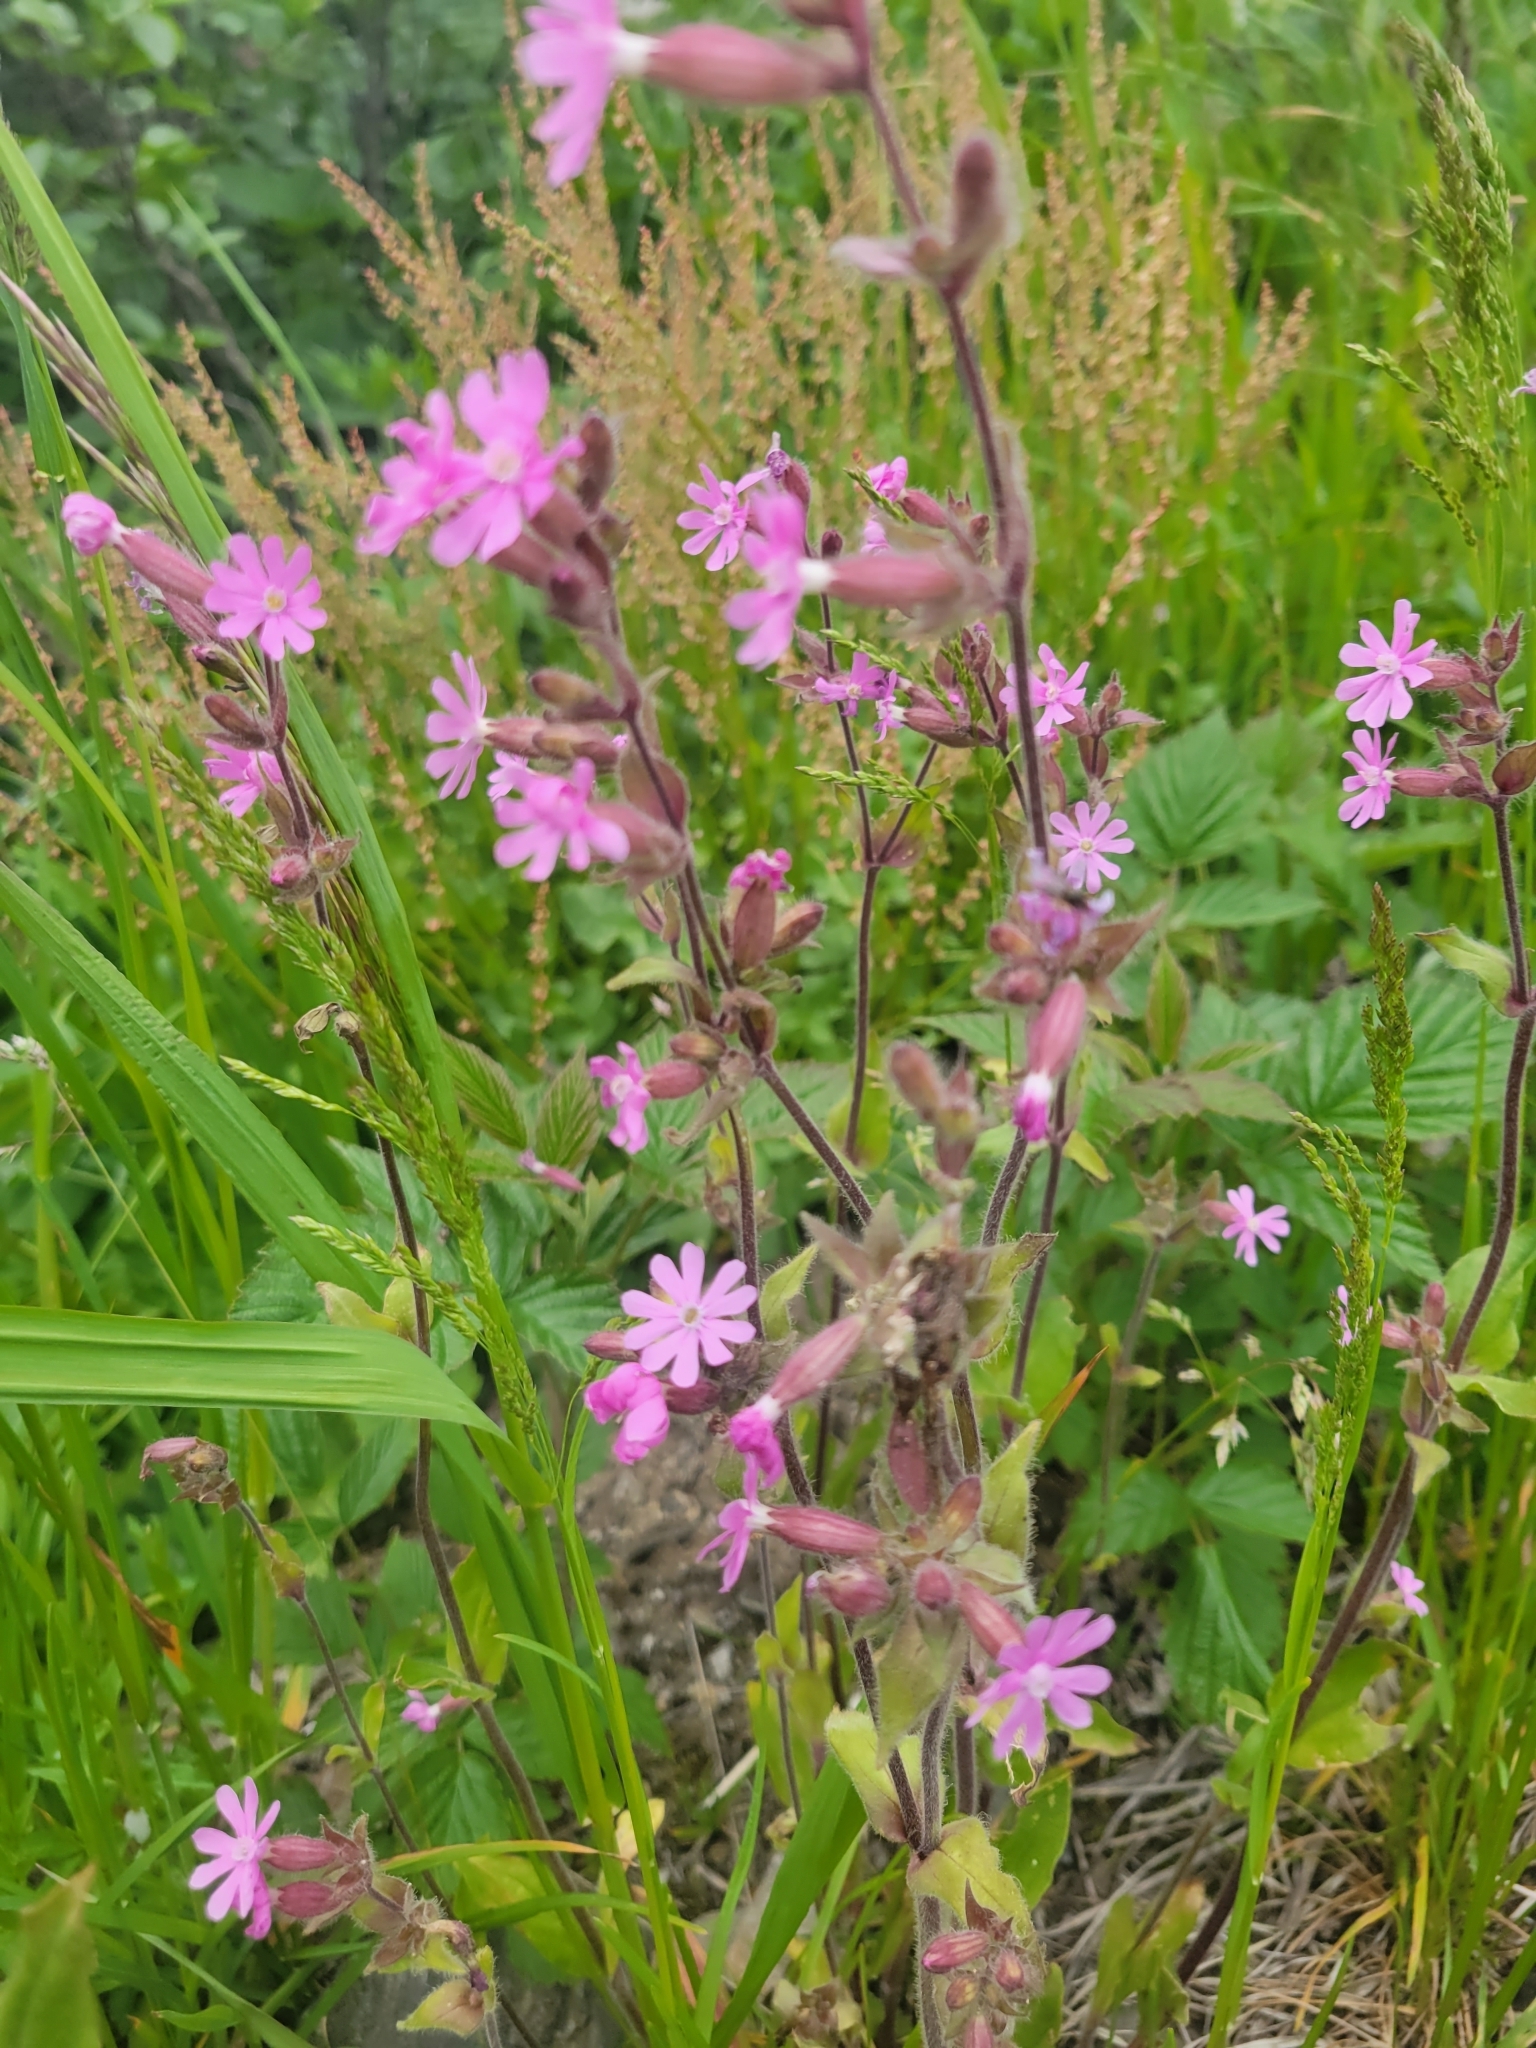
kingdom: Plantae
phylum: Tracheophyta
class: Magnoliopsida
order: Caryophyllales
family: Caryophyllaceae
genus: Silene
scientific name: Silene dioica
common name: Red campion
